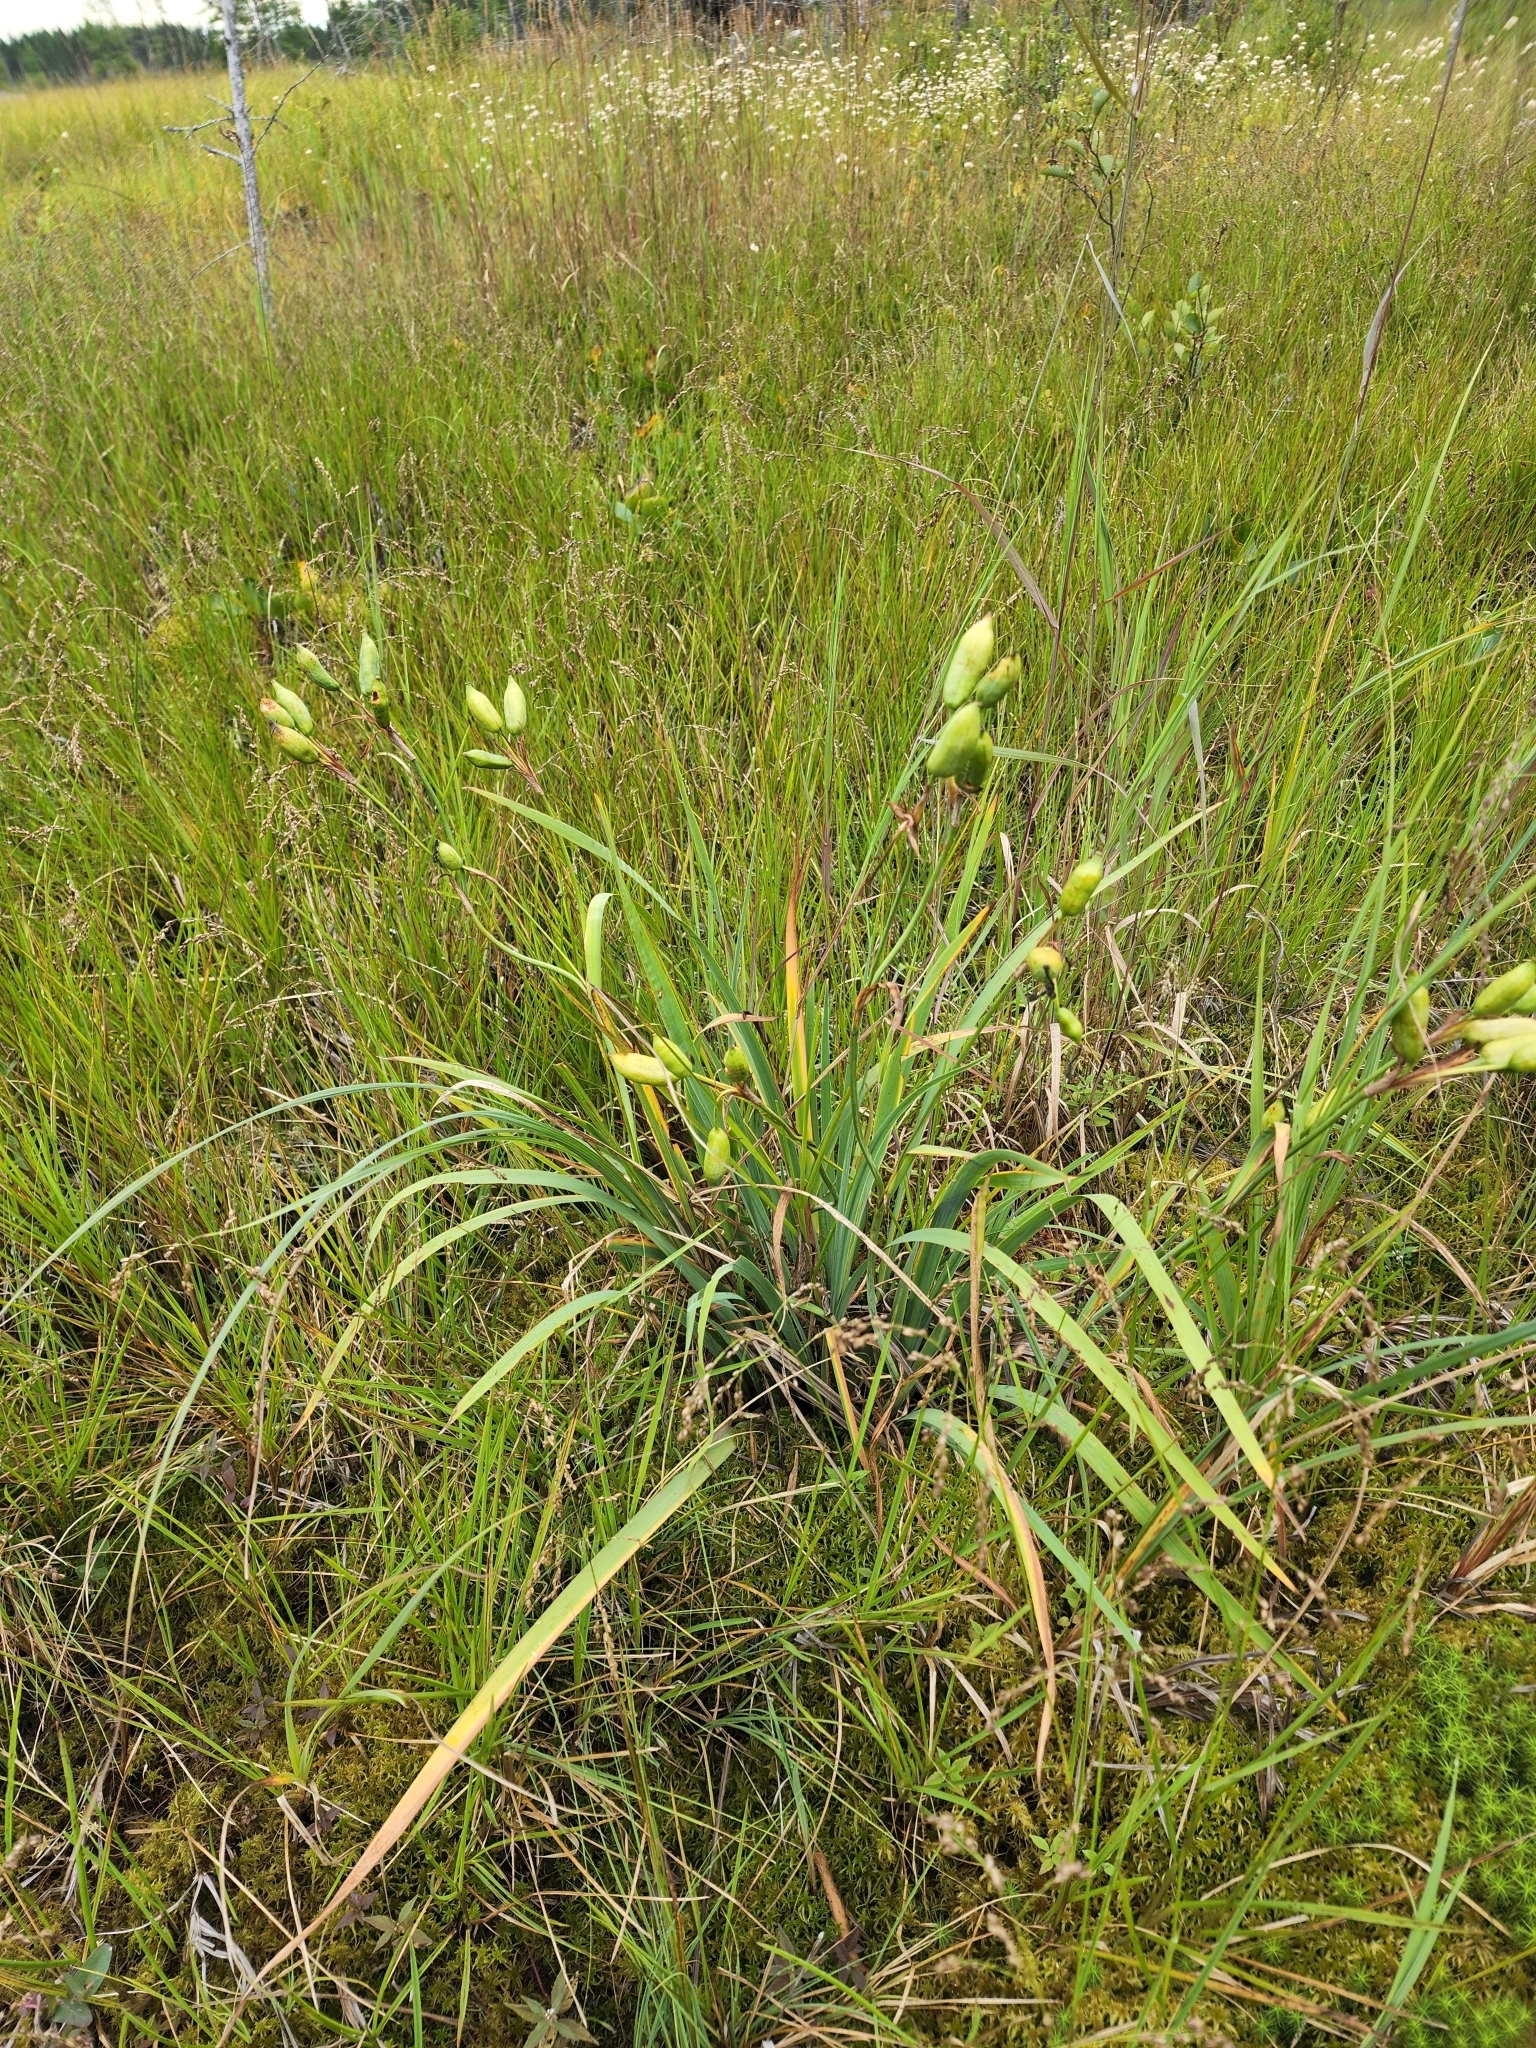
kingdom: Plantae
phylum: Tracheophyta
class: Liliopsida
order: Asparagales
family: Iridaceae
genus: Iris
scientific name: Iris versicolor
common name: Purple iris
